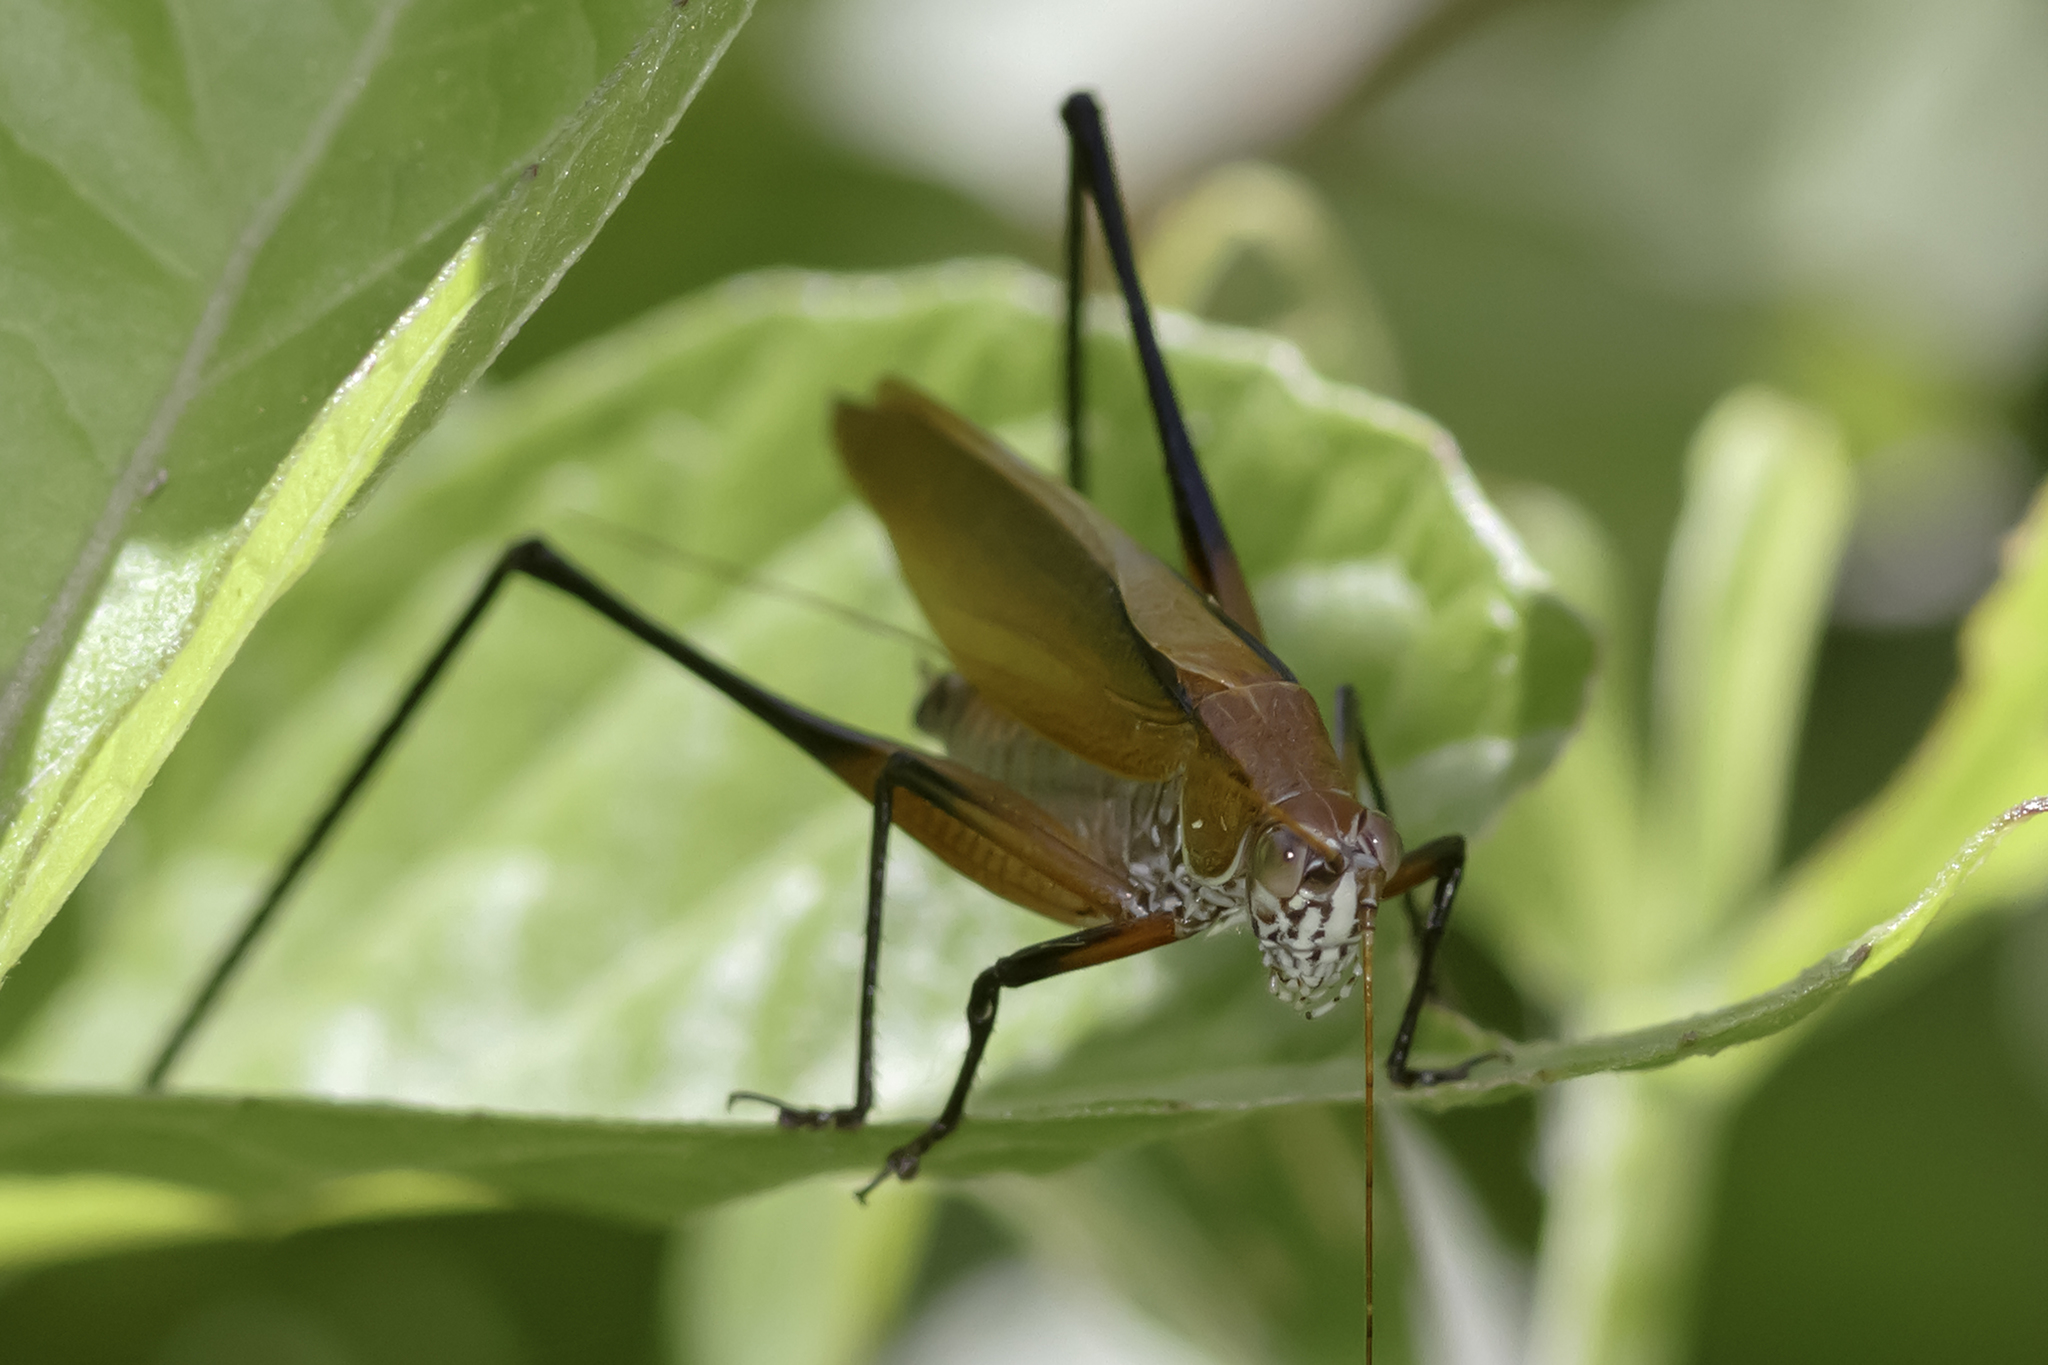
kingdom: Animalia
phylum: Arthropoda
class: Insecta
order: Orthoptera
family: Tettigoniidae
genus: Theudoria
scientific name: Theudoria melanocnemis
